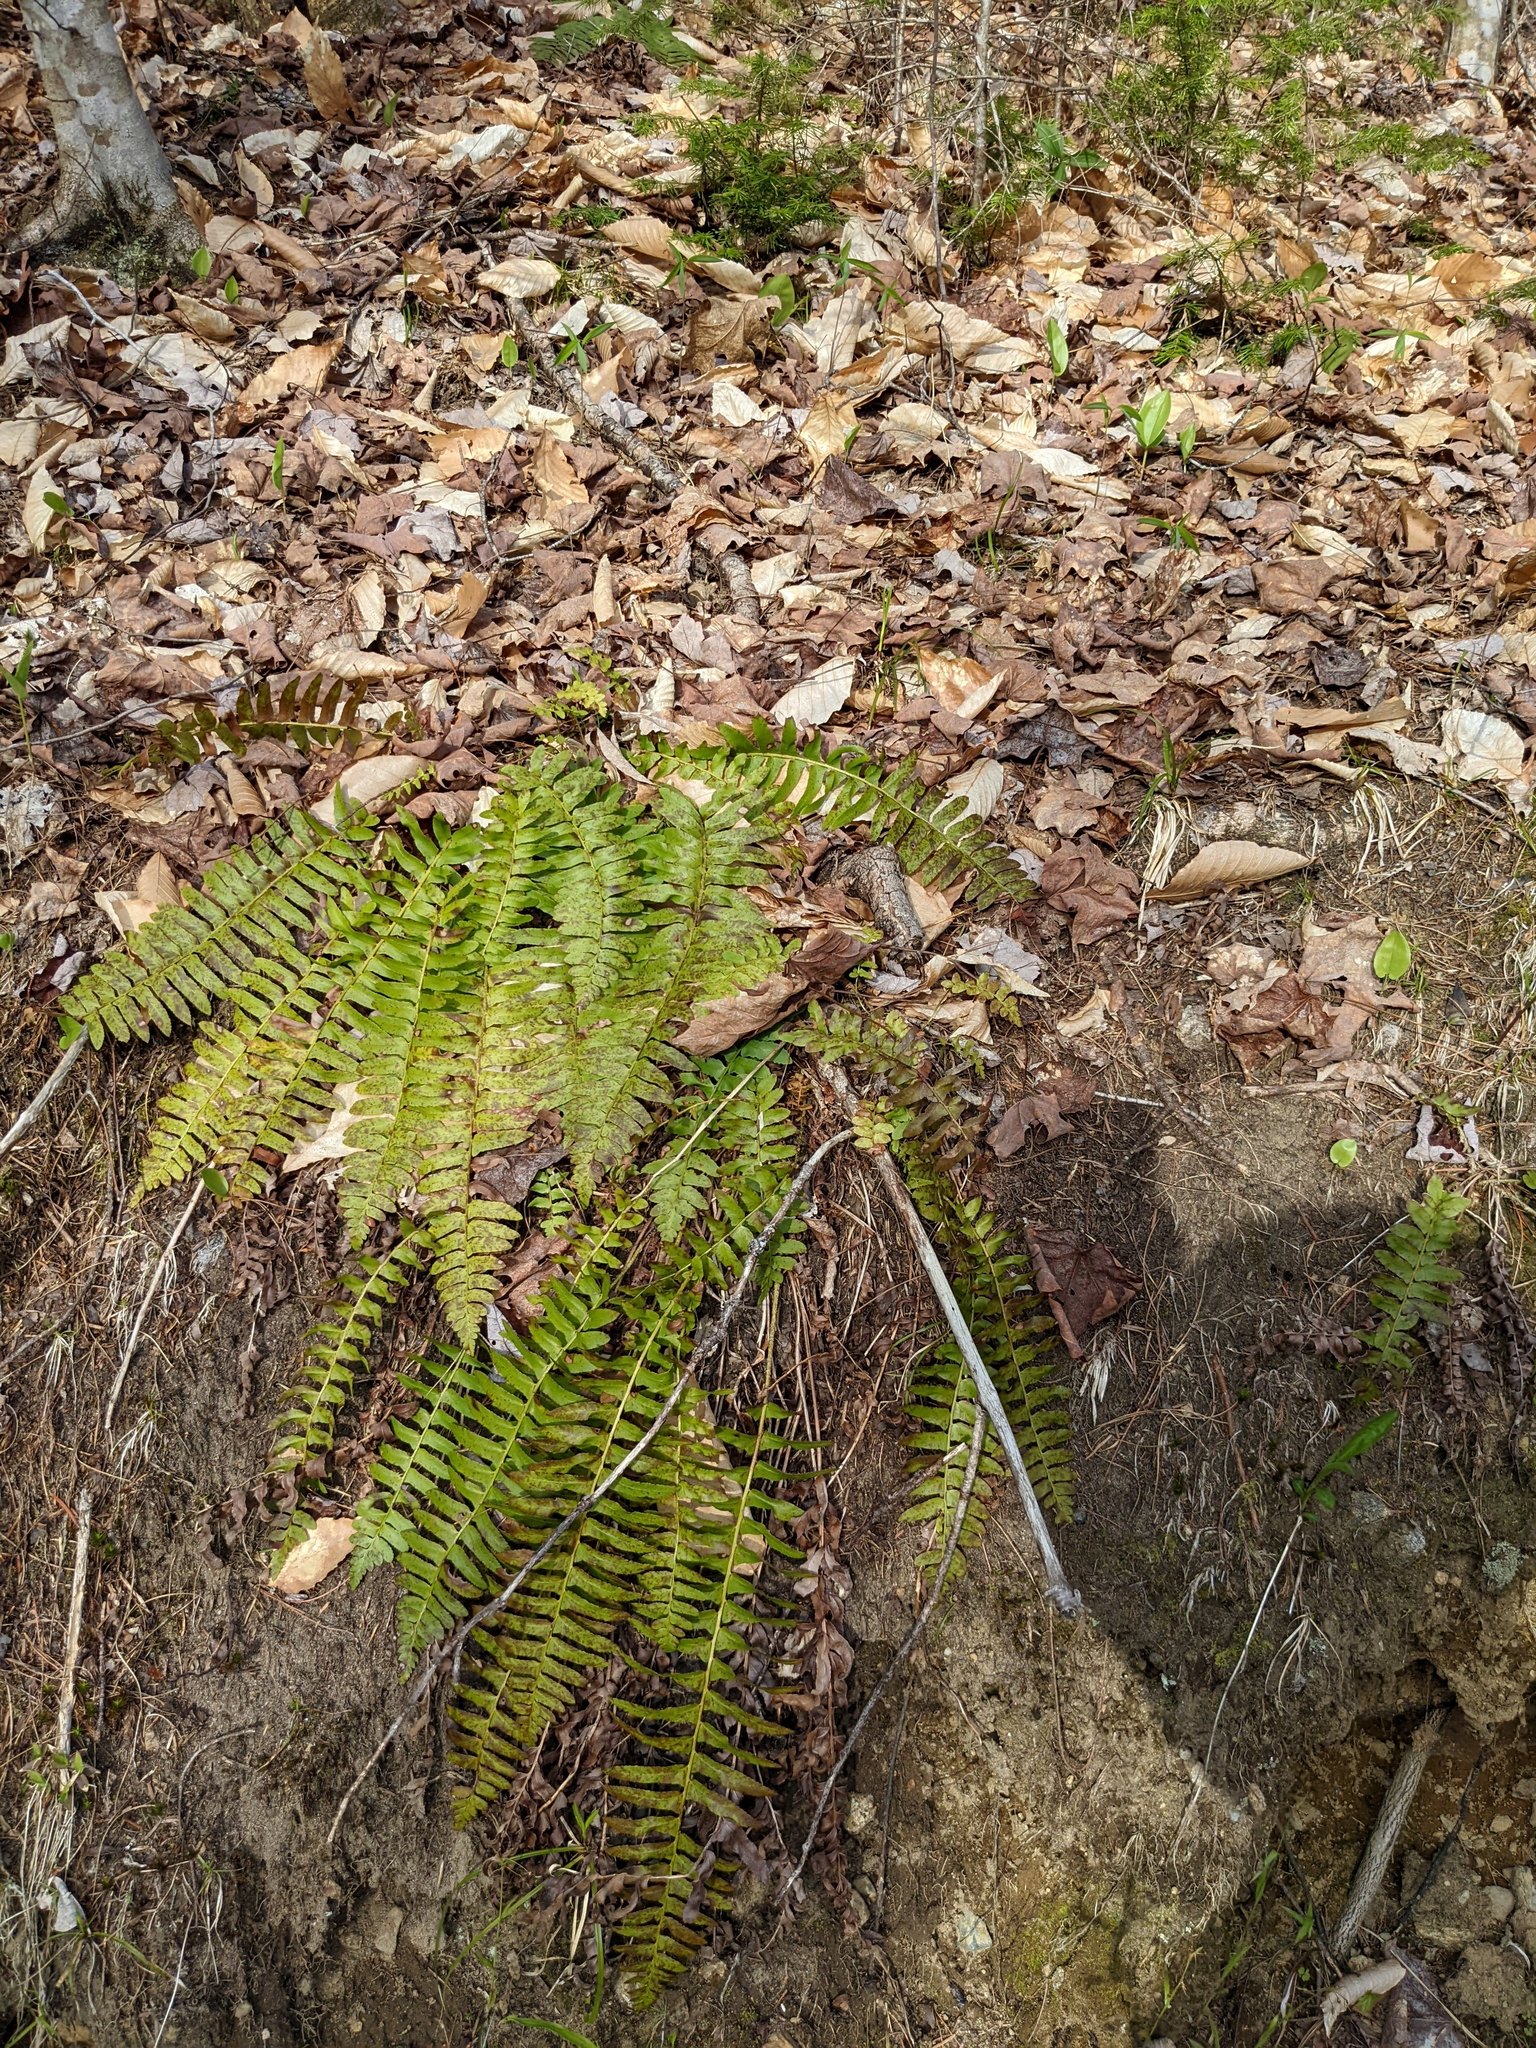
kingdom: Plantae
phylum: Tracheophyta
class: Polypodiopsida
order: Polypodiales
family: Dryopteridaceae
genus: Polystichum
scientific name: Polystichum acrostichoides
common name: Christmas fern
